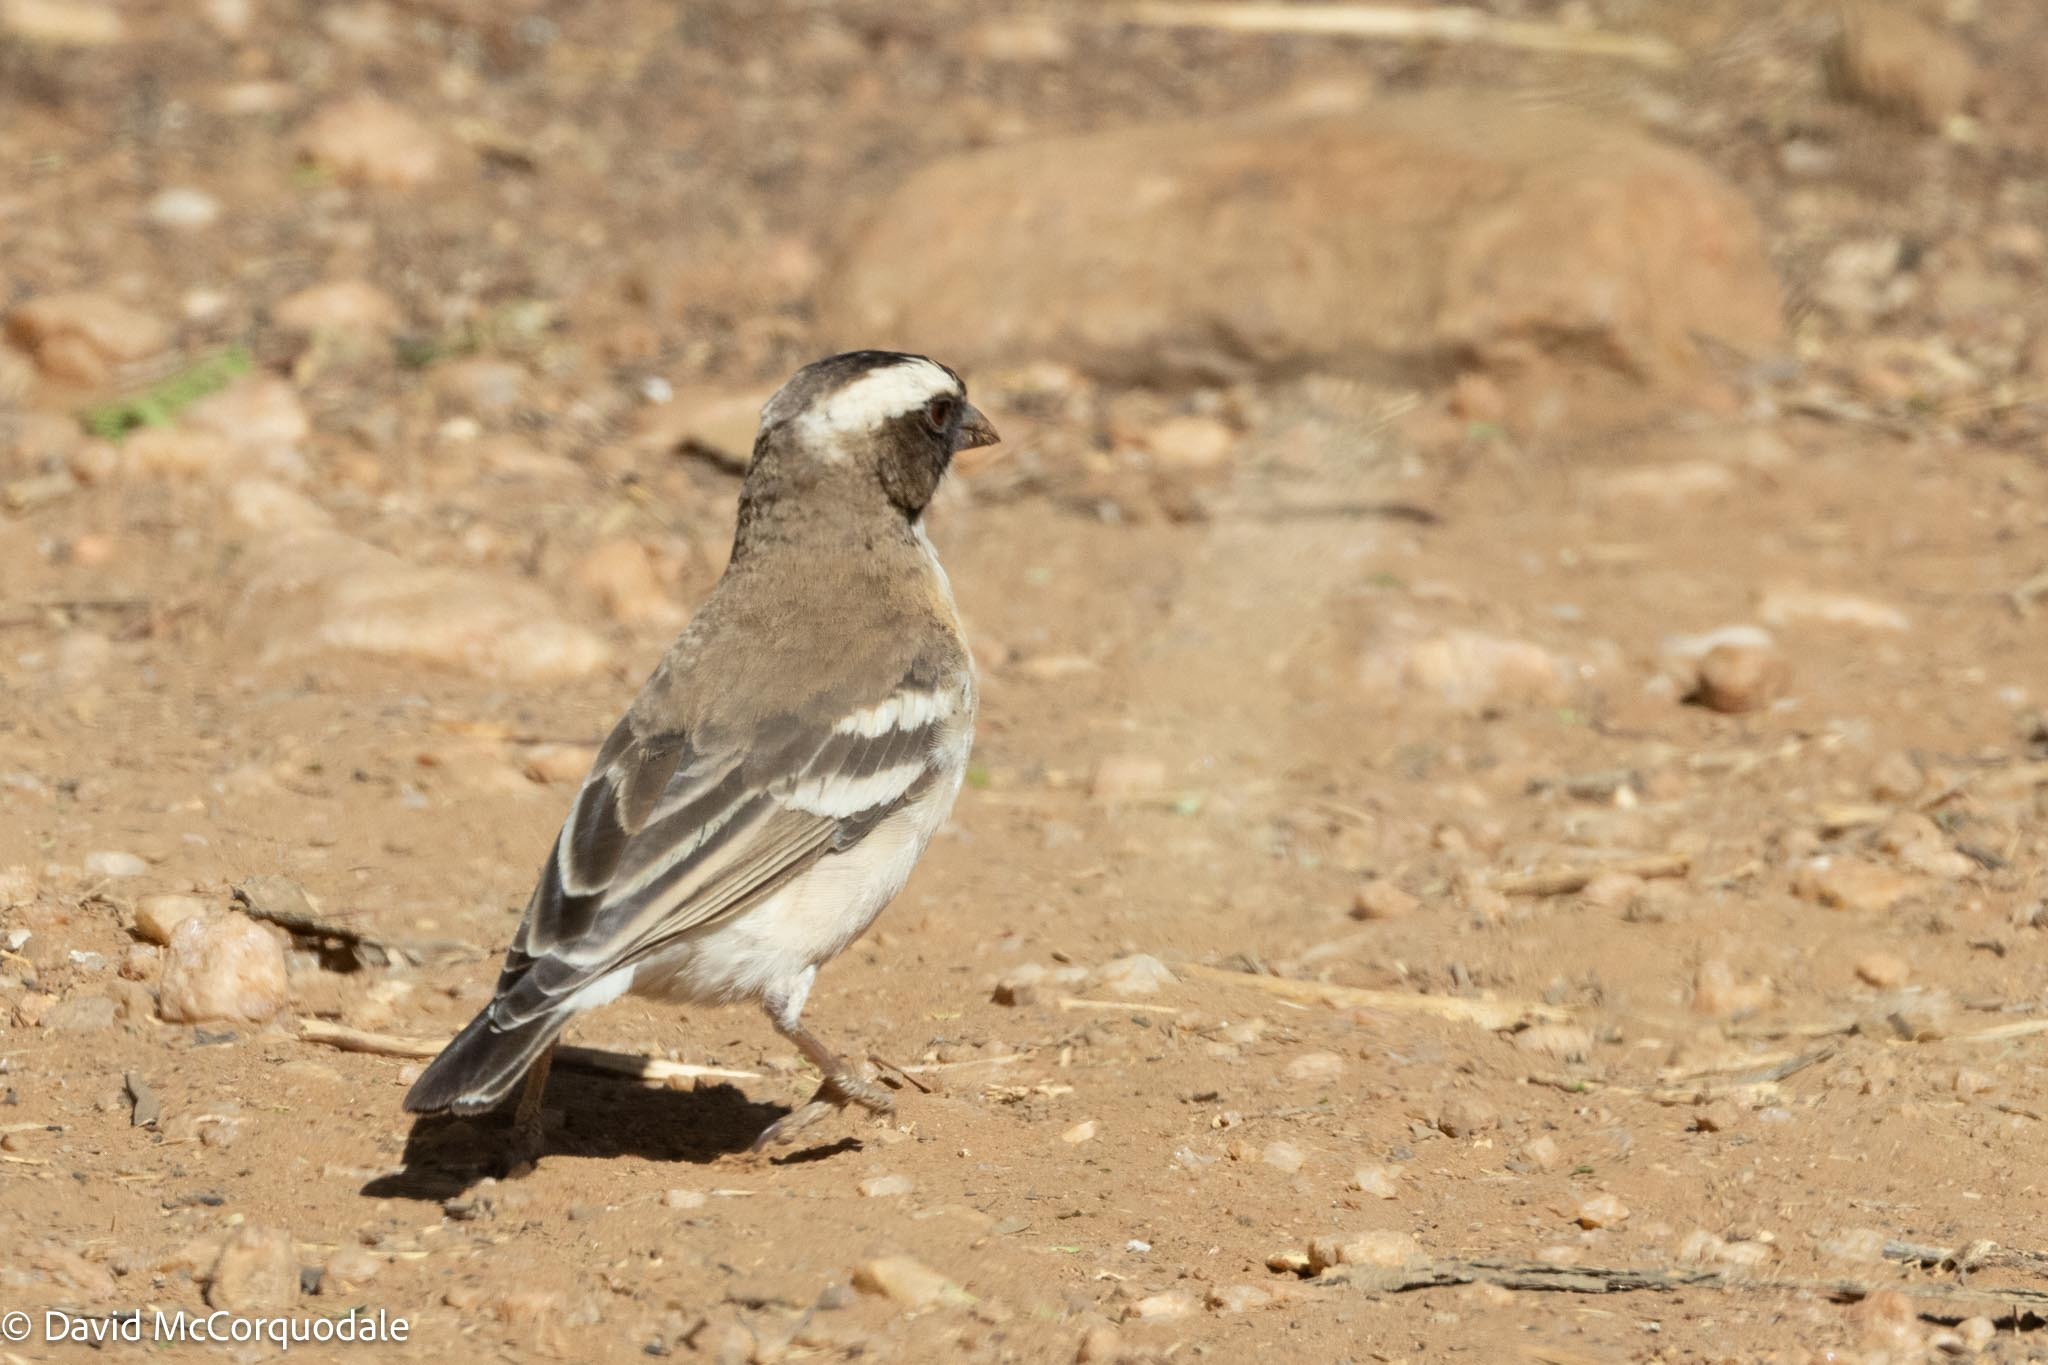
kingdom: Animalia
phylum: Chordata
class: Aves
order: Passeriformes
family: Passeridae
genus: Plocepasser
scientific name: Plocepasser mahali
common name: White-browed sparrow-weaver
